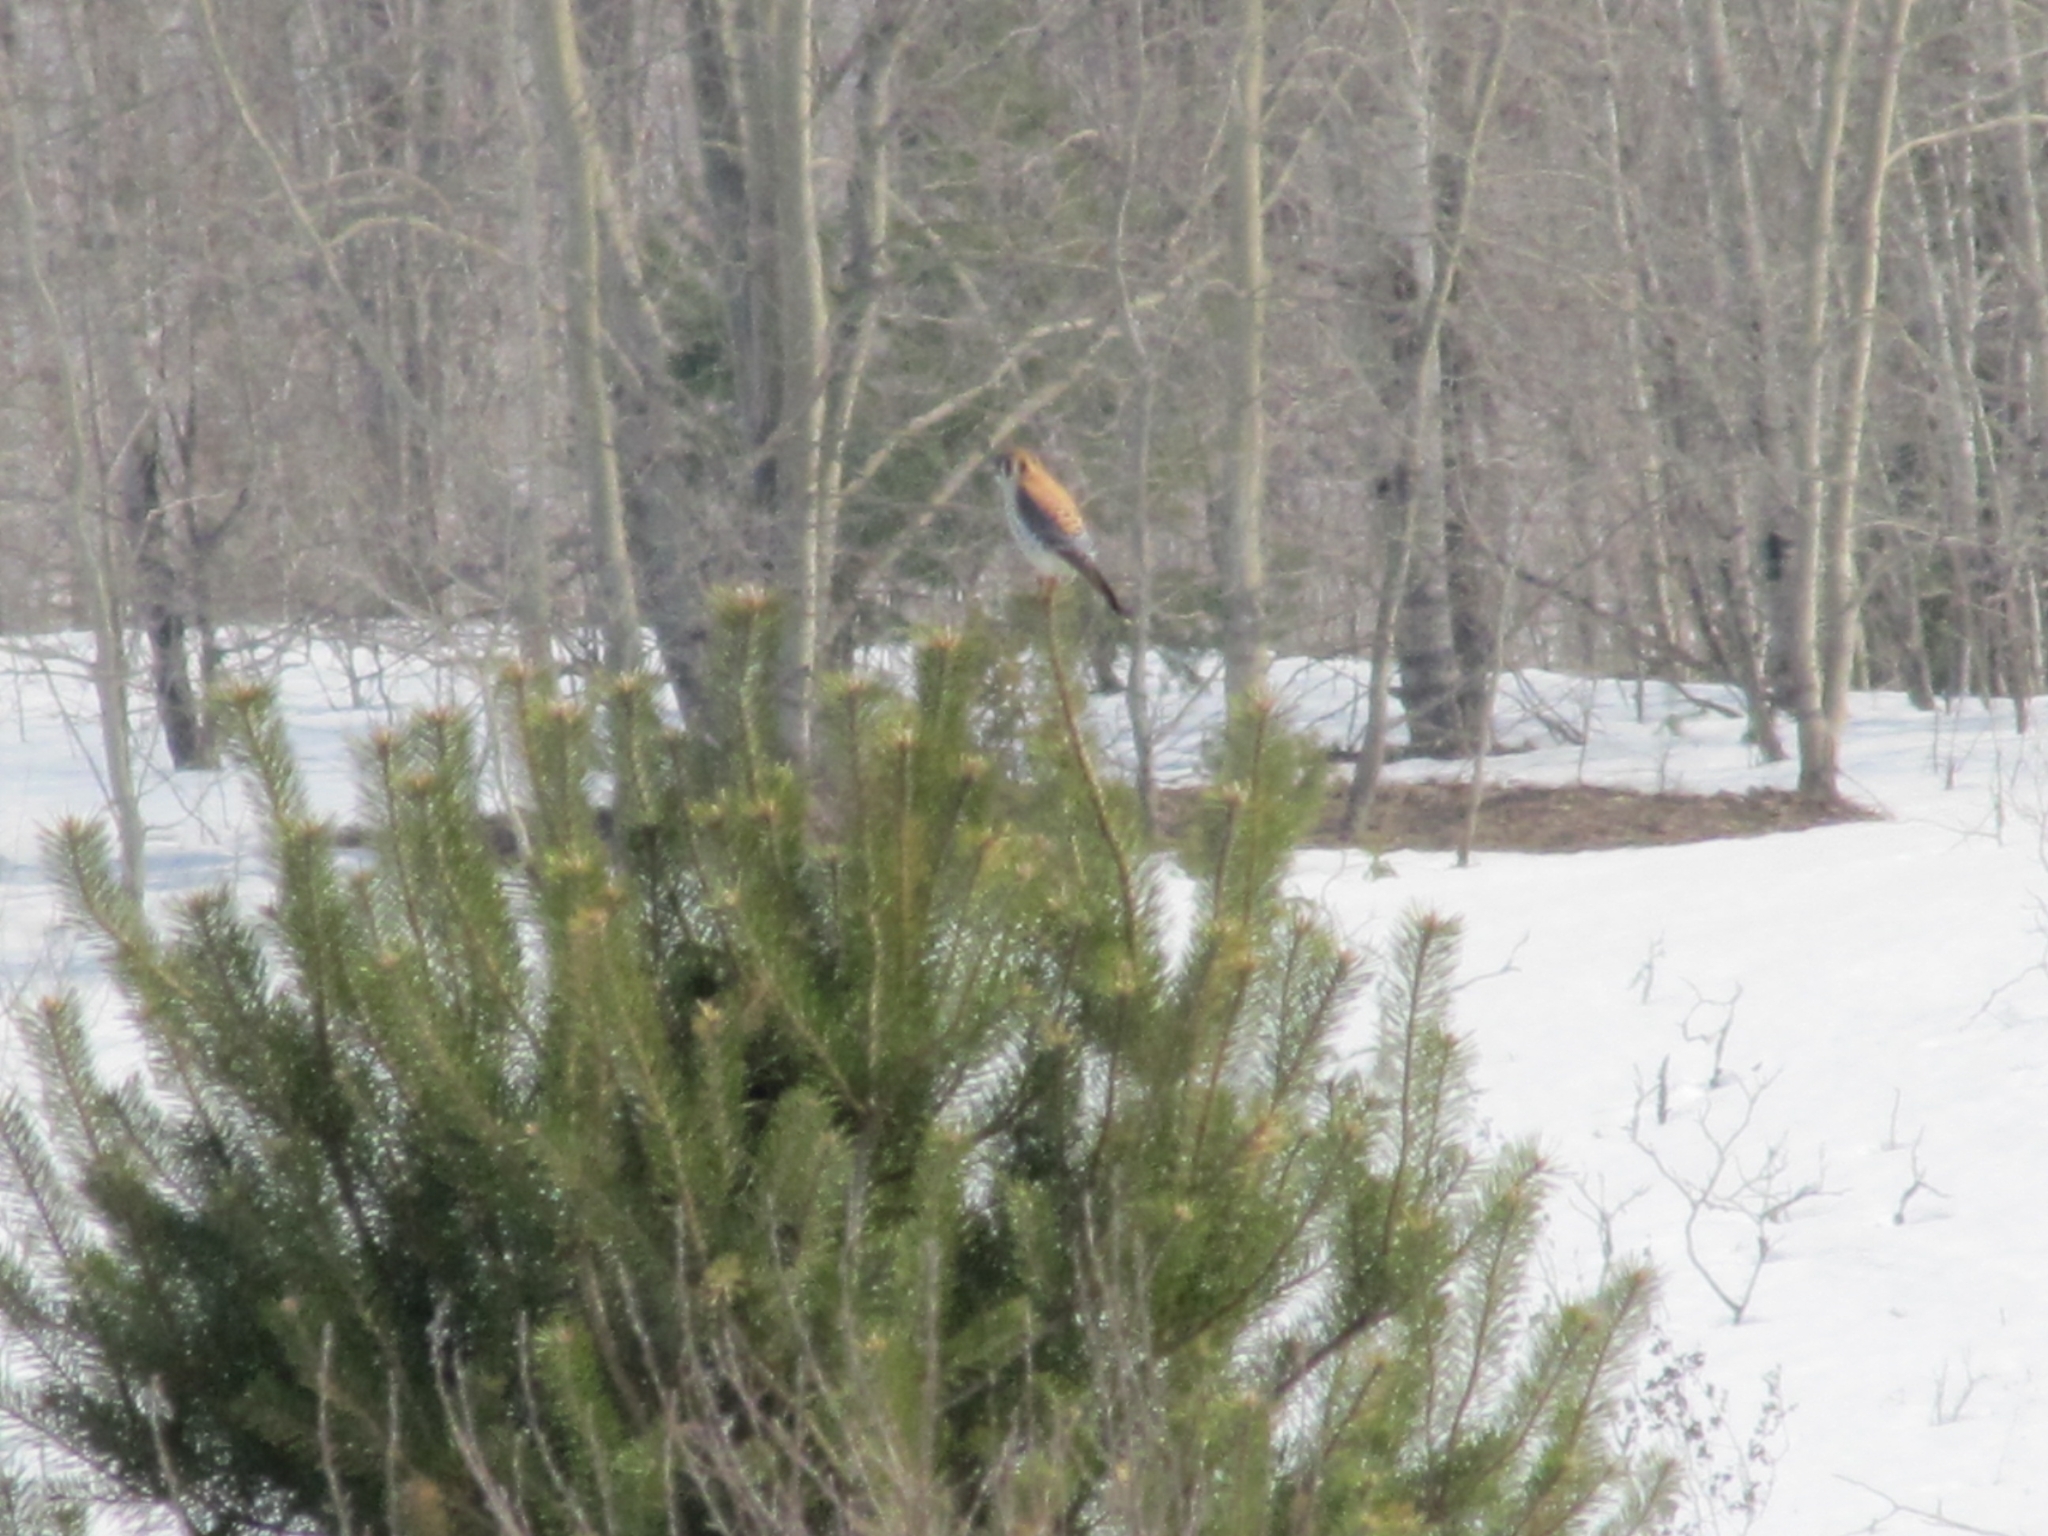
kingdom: Animalia
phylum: Chordata
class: Aves
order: Falconiformes
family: Falconidae
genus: Falco
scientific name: Falco sparverius
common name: American kestrel
